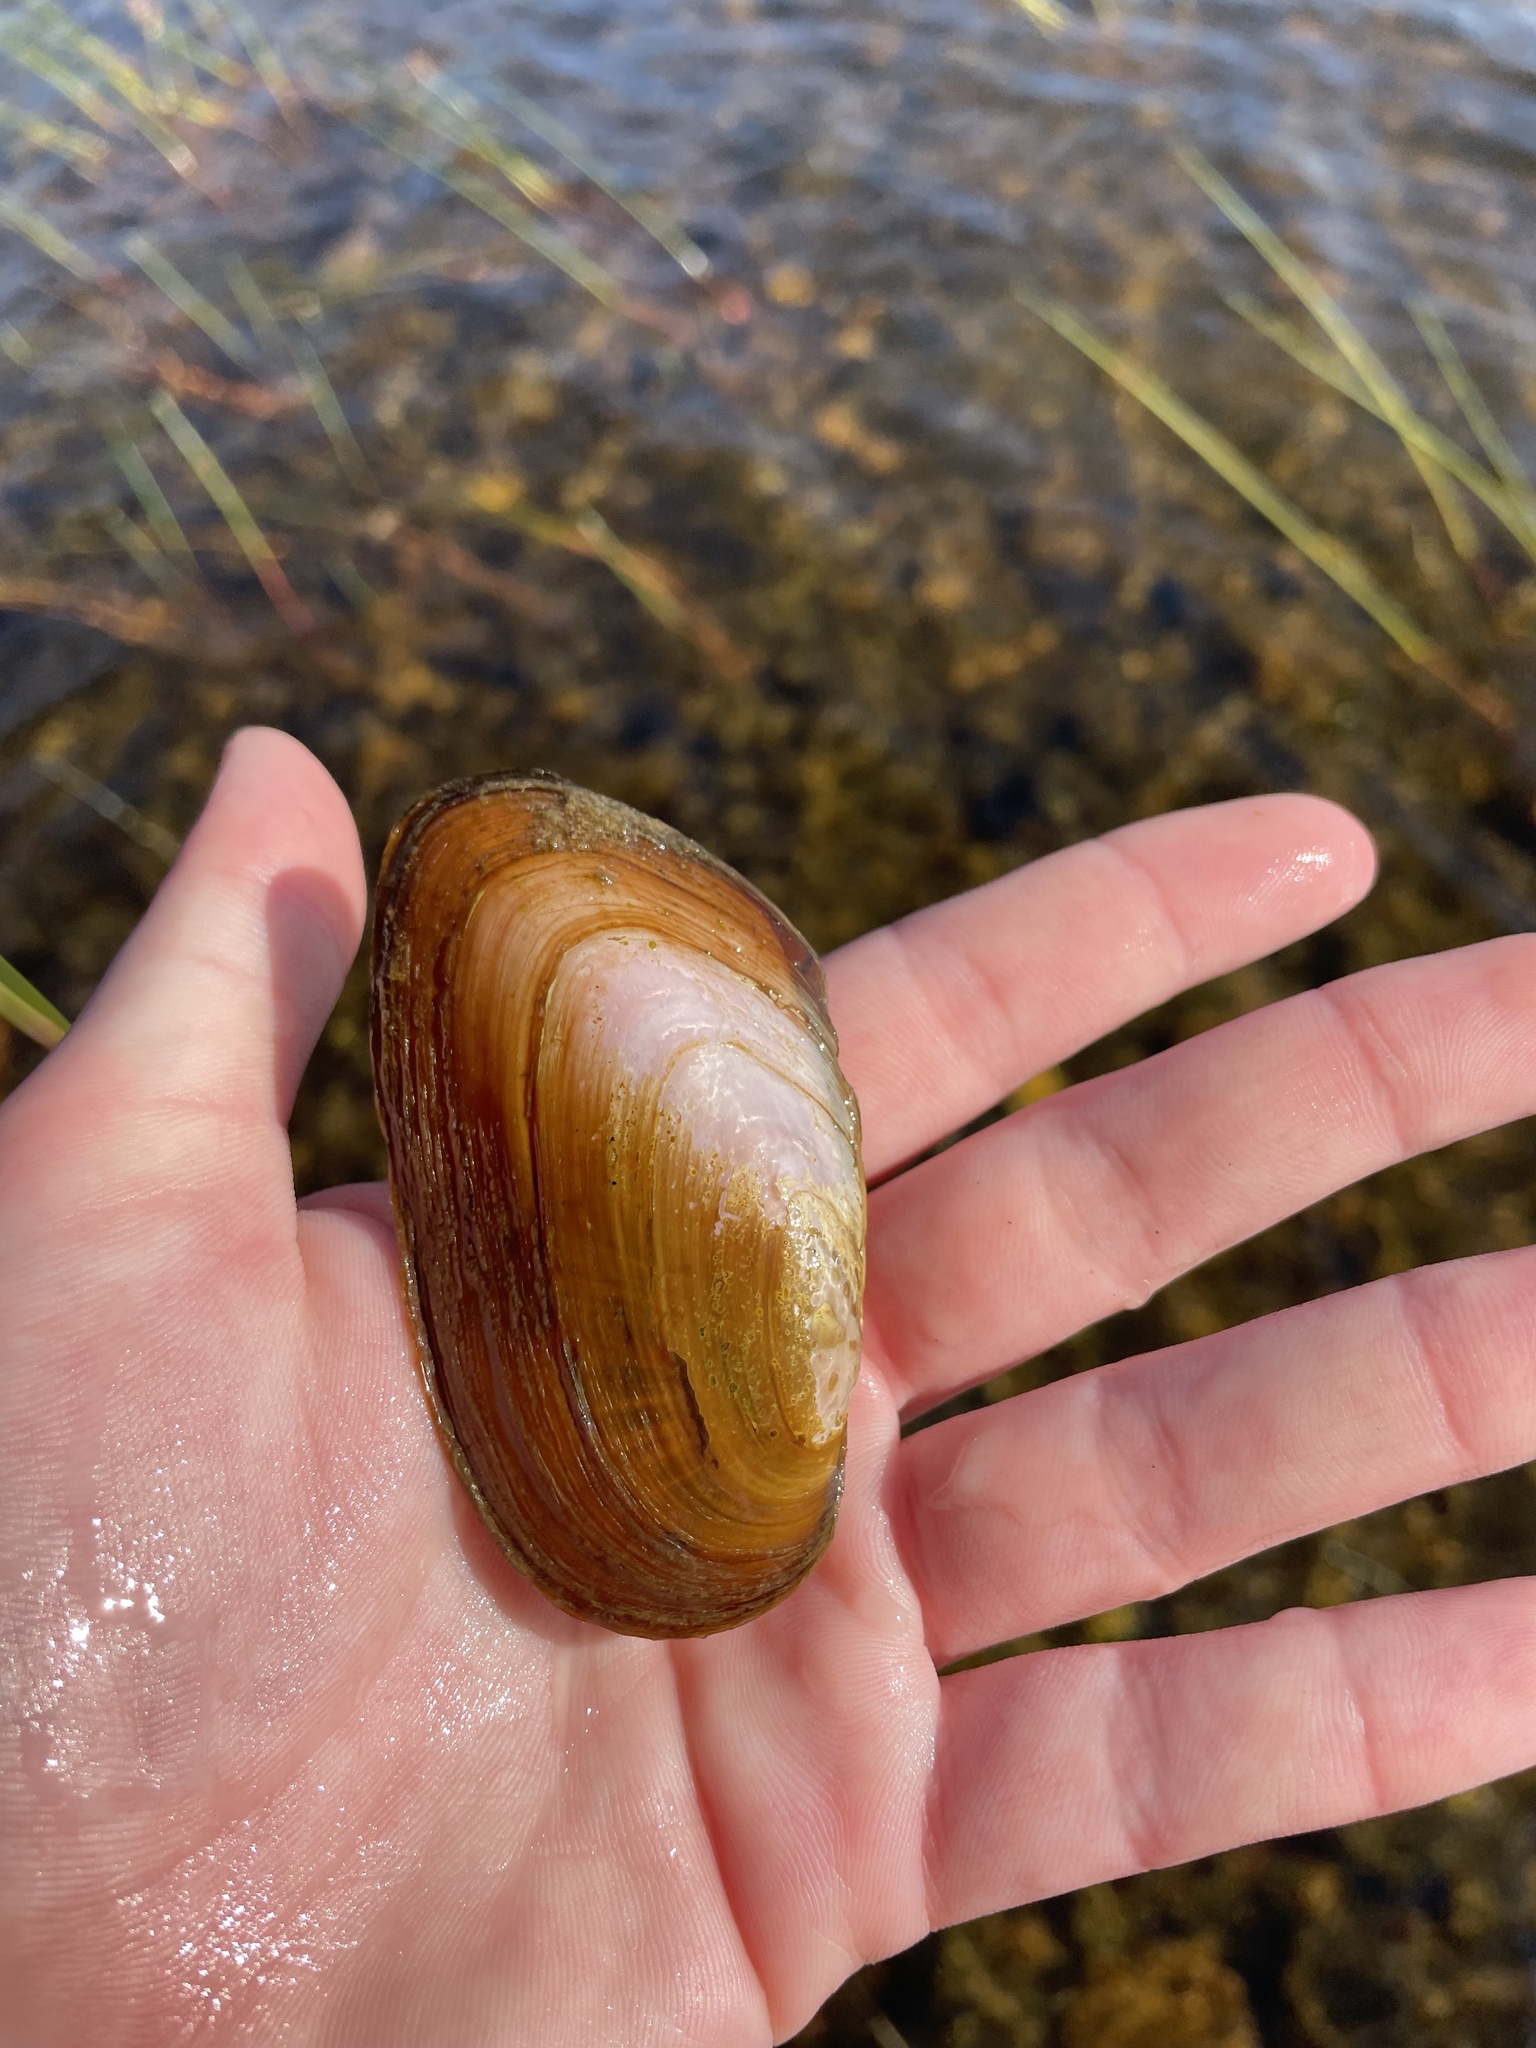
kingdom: Animalia
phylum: Mollusca
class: Bivalvia
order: Unionida
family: Unionidae
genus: Elliptio
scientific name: Elliptio complanata
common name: Eastern elliptio
